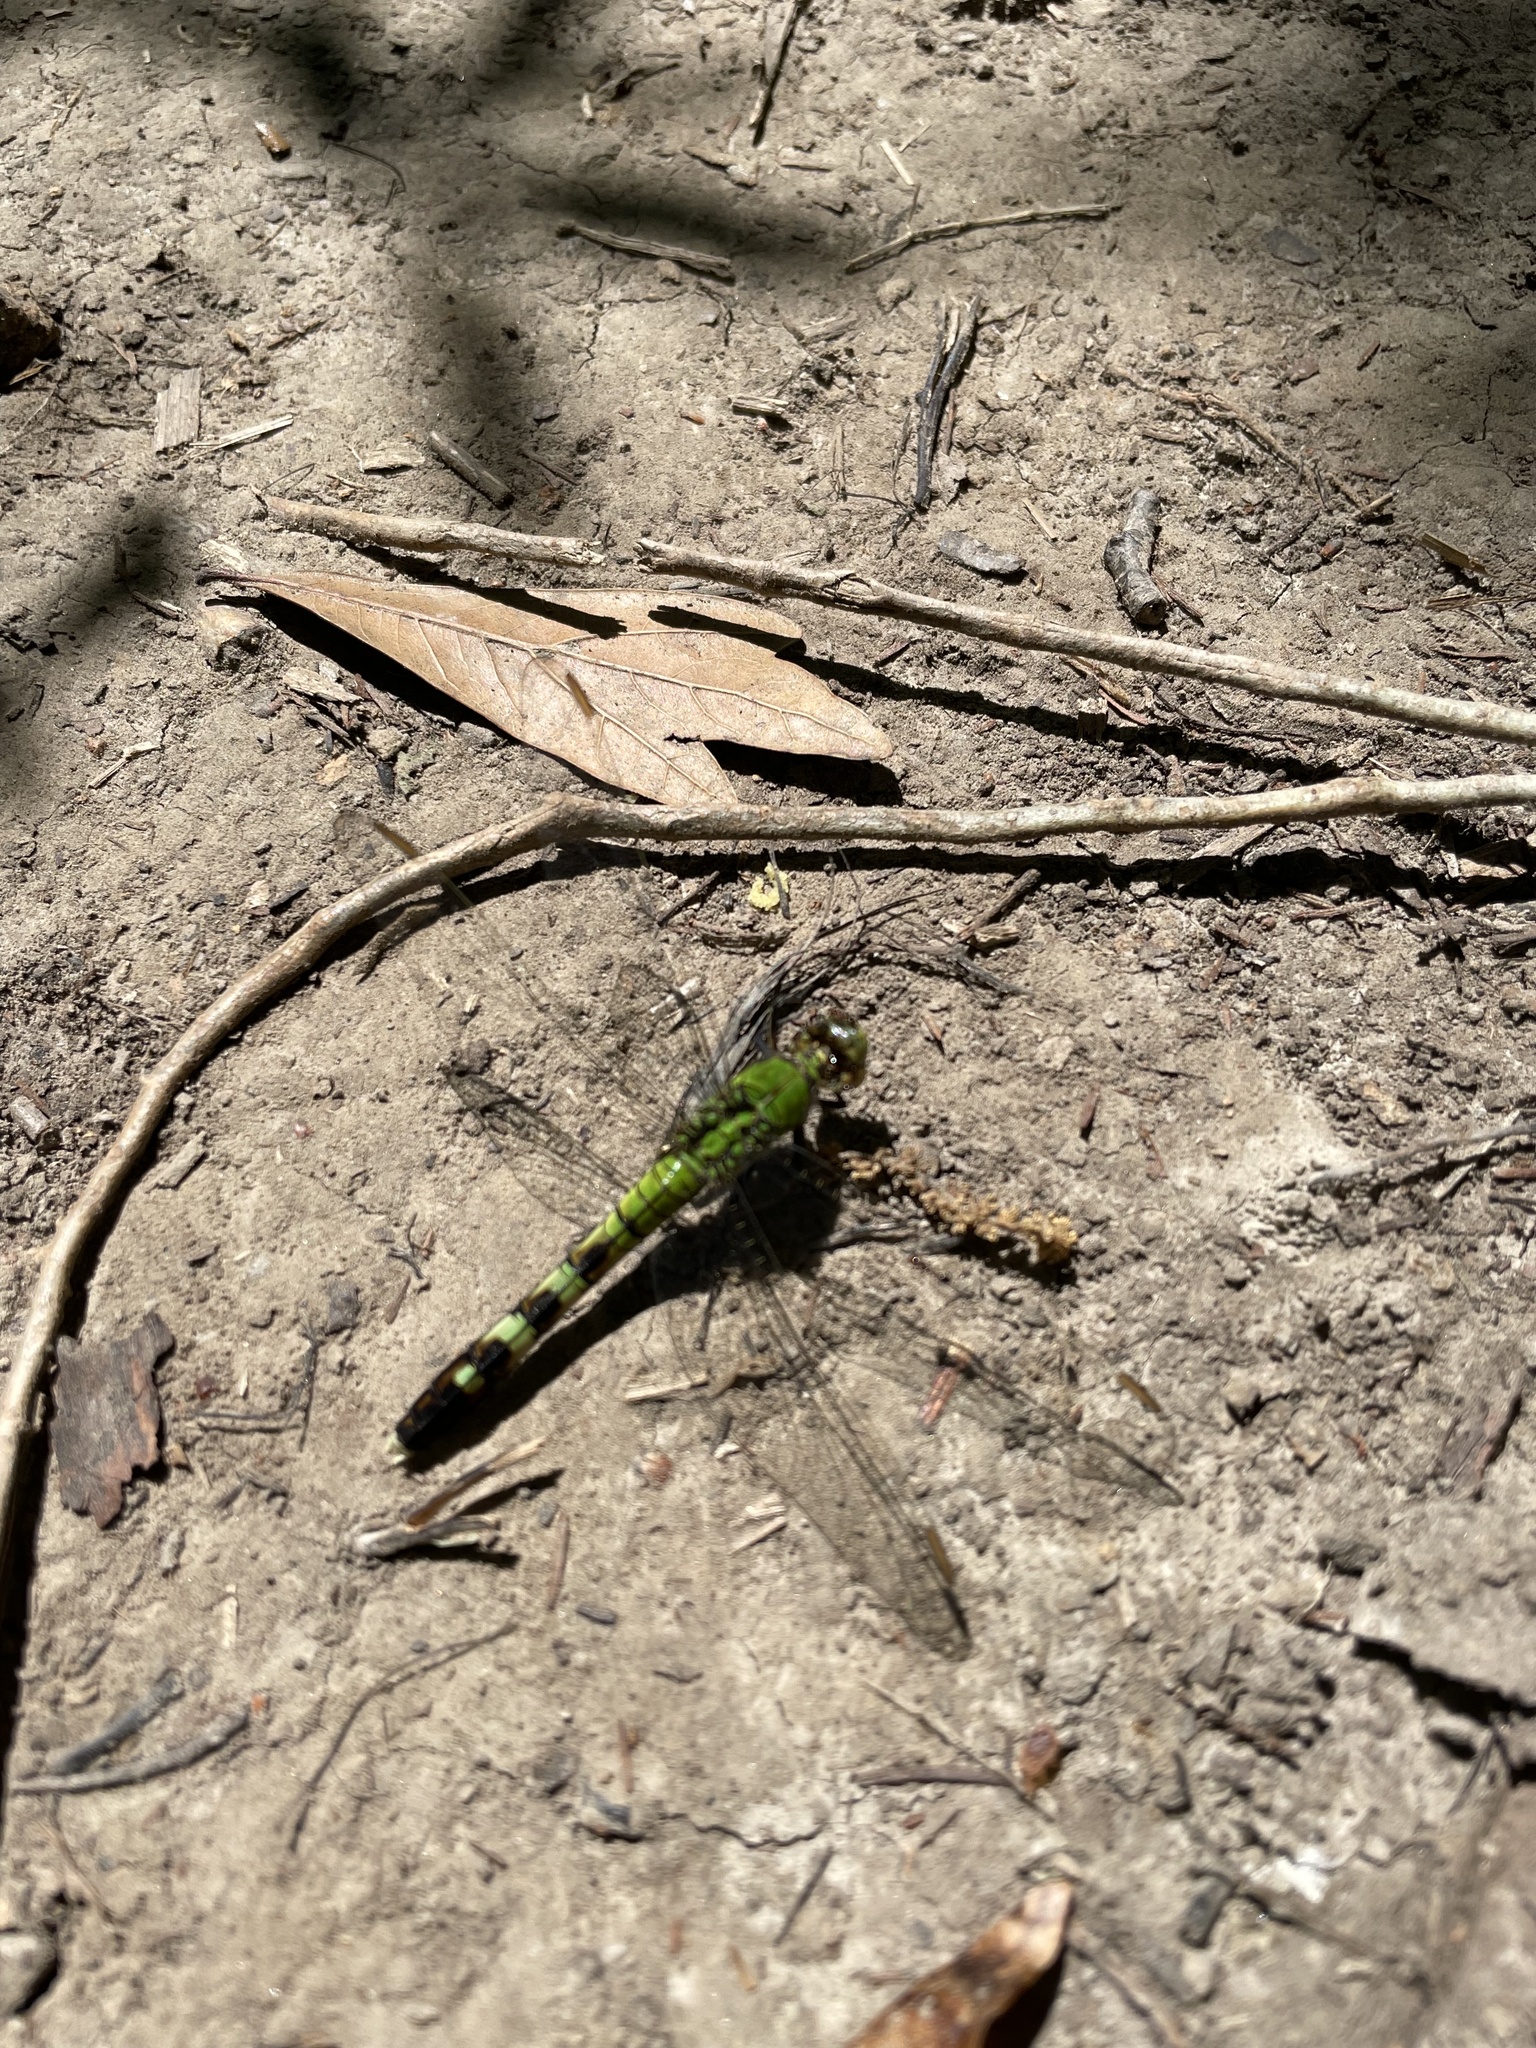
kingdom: Animalia
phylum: Arthropoda
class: Insecta
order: Odonata
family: Libellulidae
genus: Erythemis
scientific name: Erythemis simplicicollis
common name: Eastern pondhawk
